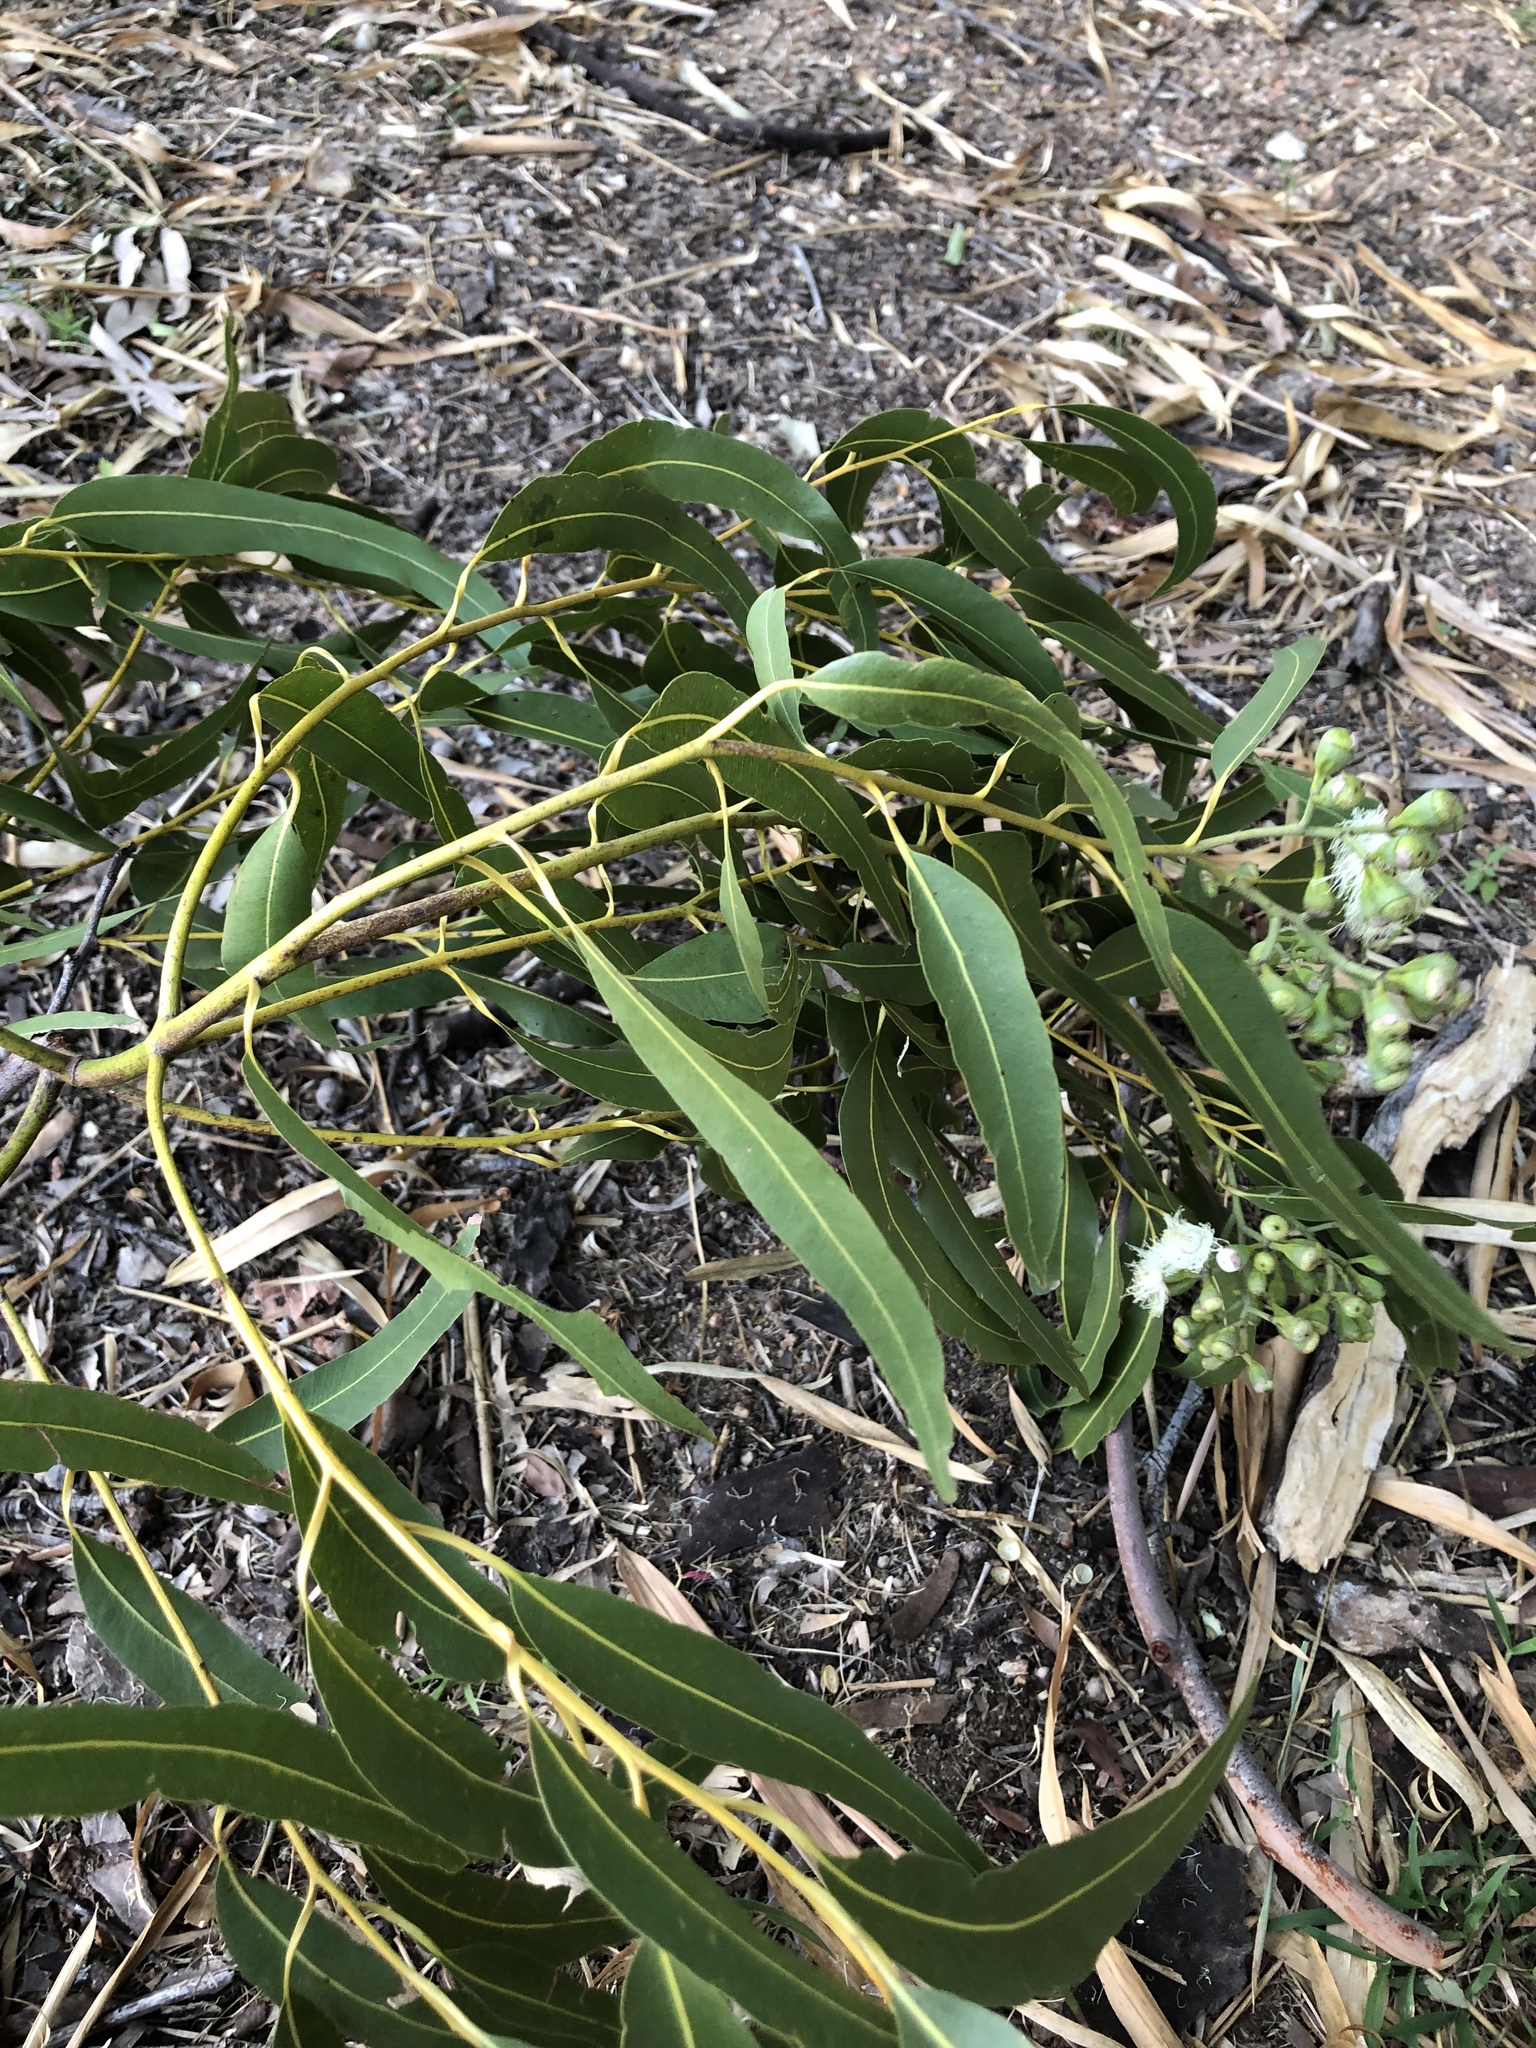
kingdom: Plantae
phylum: Tracheophyta
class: Magnoliopsida
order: Myrtales
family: Myrtaceae
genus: Corymbia
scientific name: Corymbia citriodora
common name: Lemonscented gum
